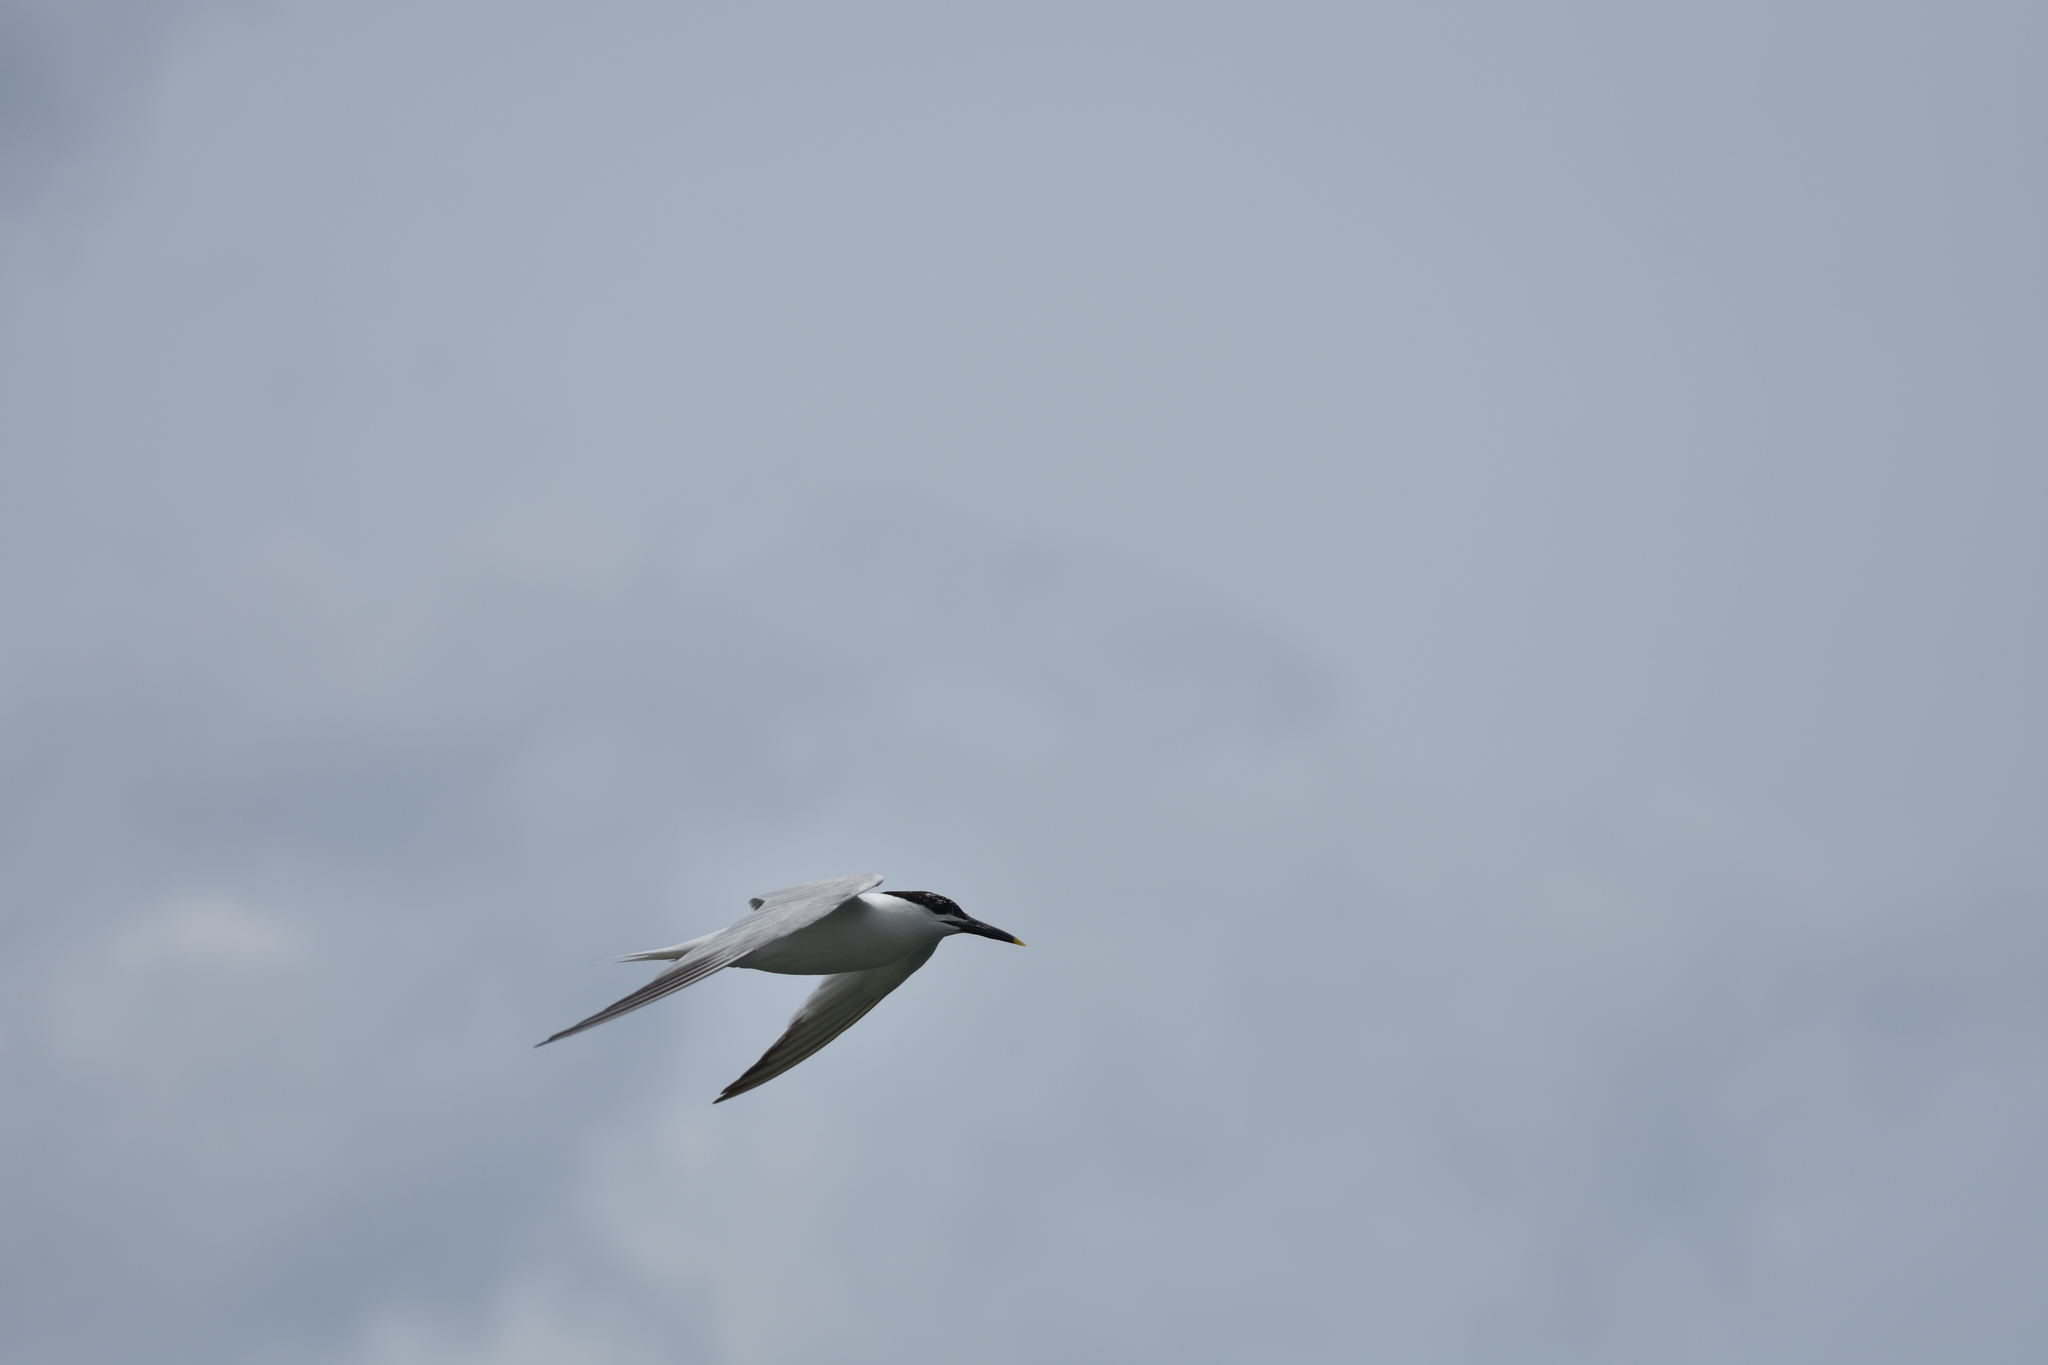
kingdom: Animalia
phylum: Chordata
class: Aves
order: Charadriiformes
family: Laridae
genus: Thalasseus
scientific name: Thalasseus sandvicensis
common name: Sandwich tern
